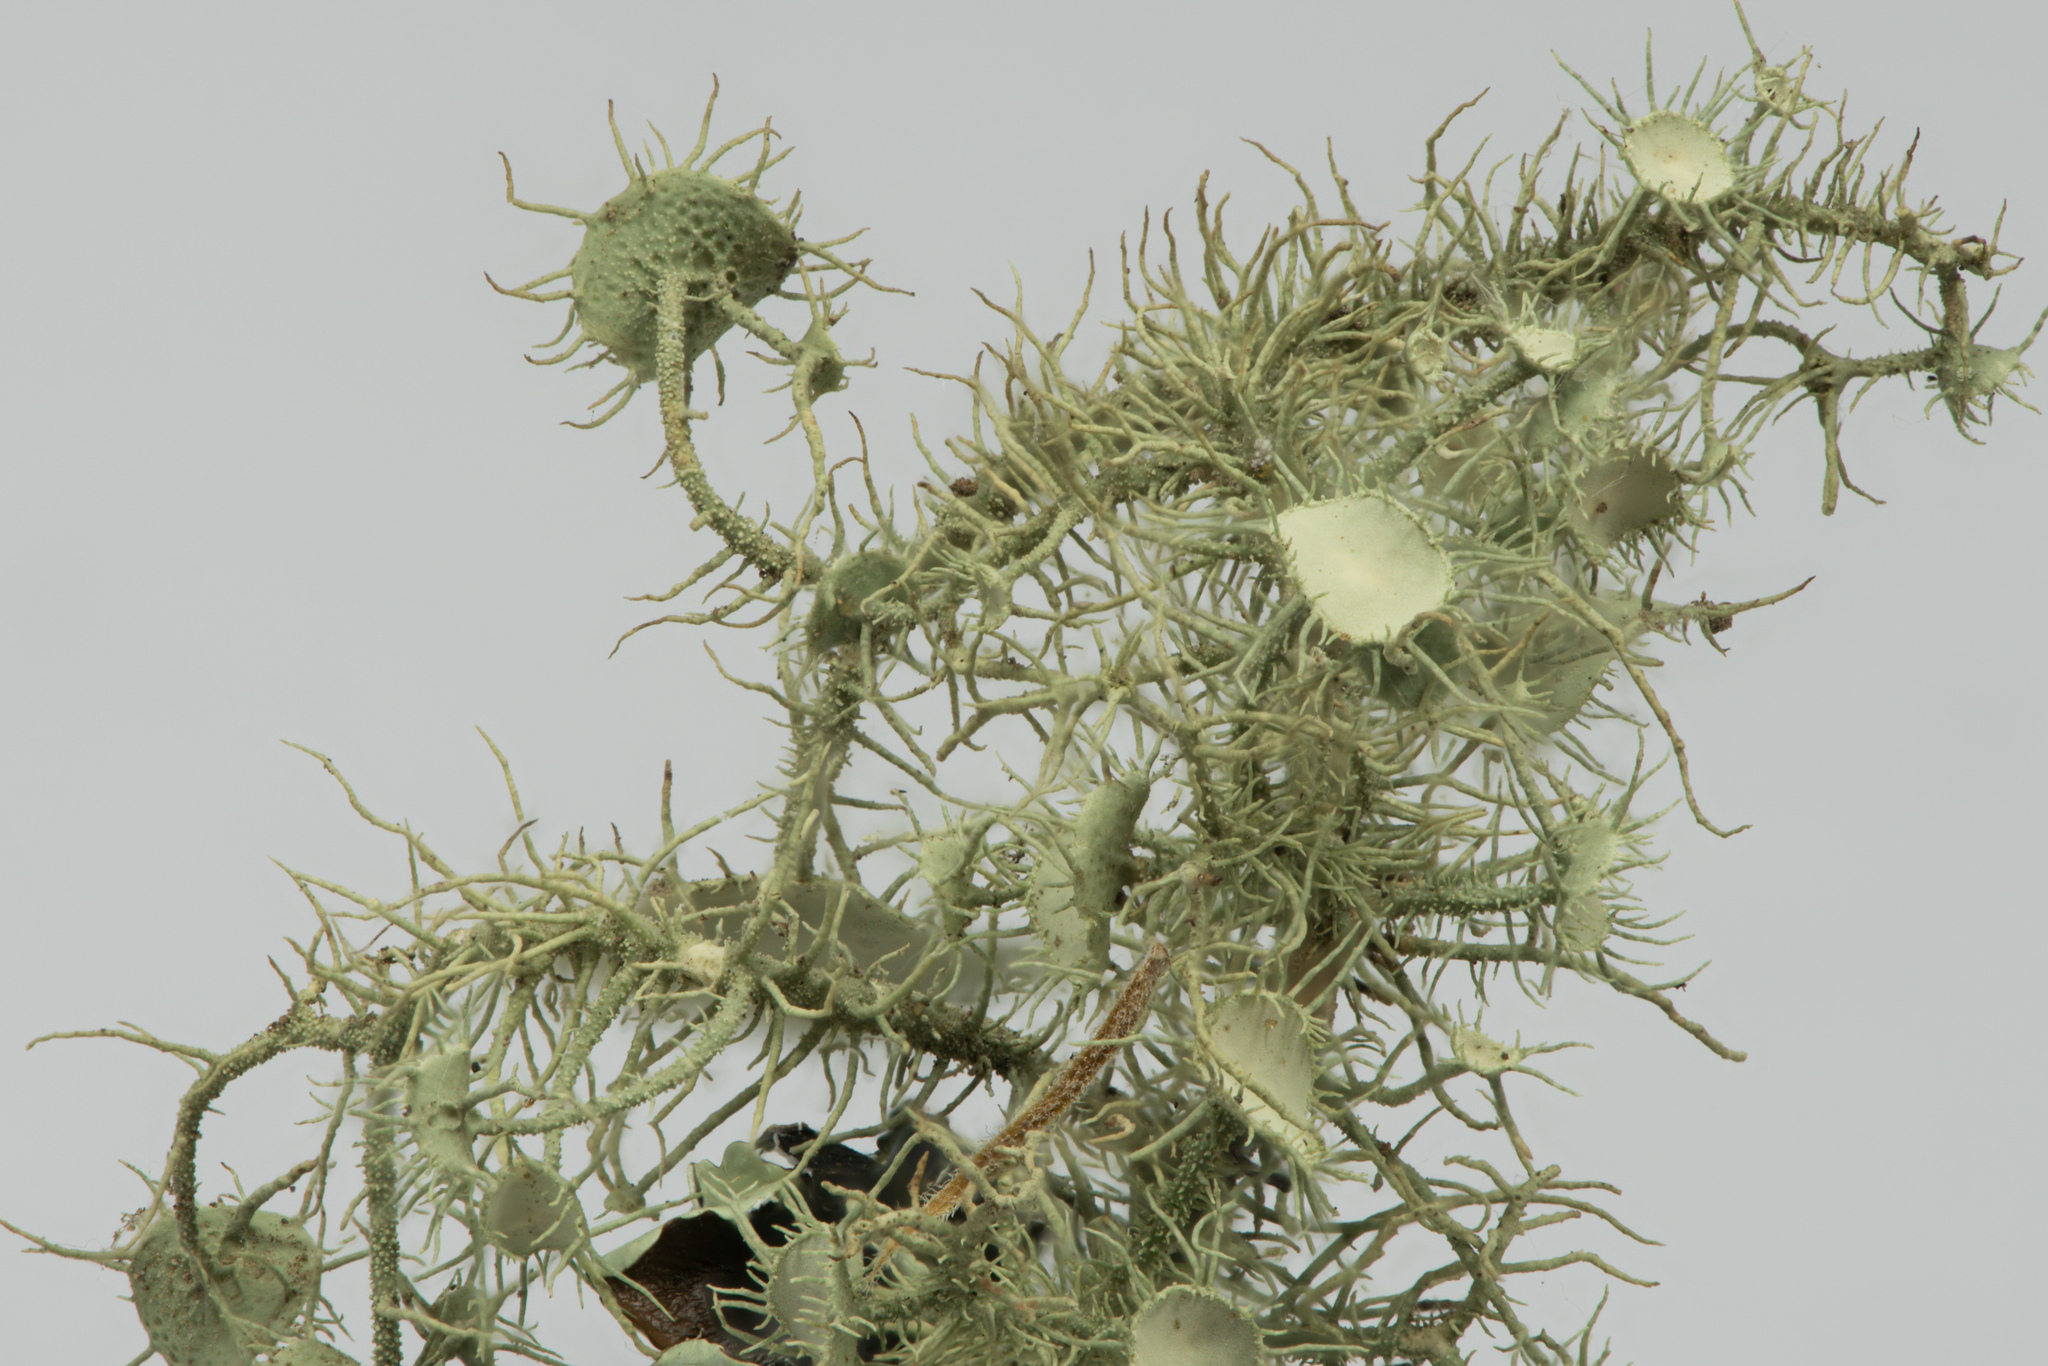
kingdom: Fungi
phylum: Ascomycota
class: Lecanoromycetes
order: Lecanorales
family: Parmeliaceae
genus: Usnea
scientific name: Usnea intermedia
